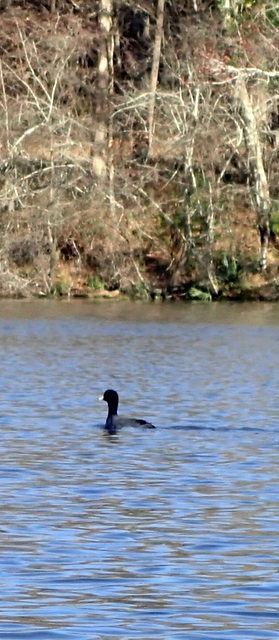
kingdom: Animalia
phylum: Chordata
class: Aves
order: Gruiformes
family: Rallidae
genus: Fulica
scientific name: Fulica americana
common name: American coot
